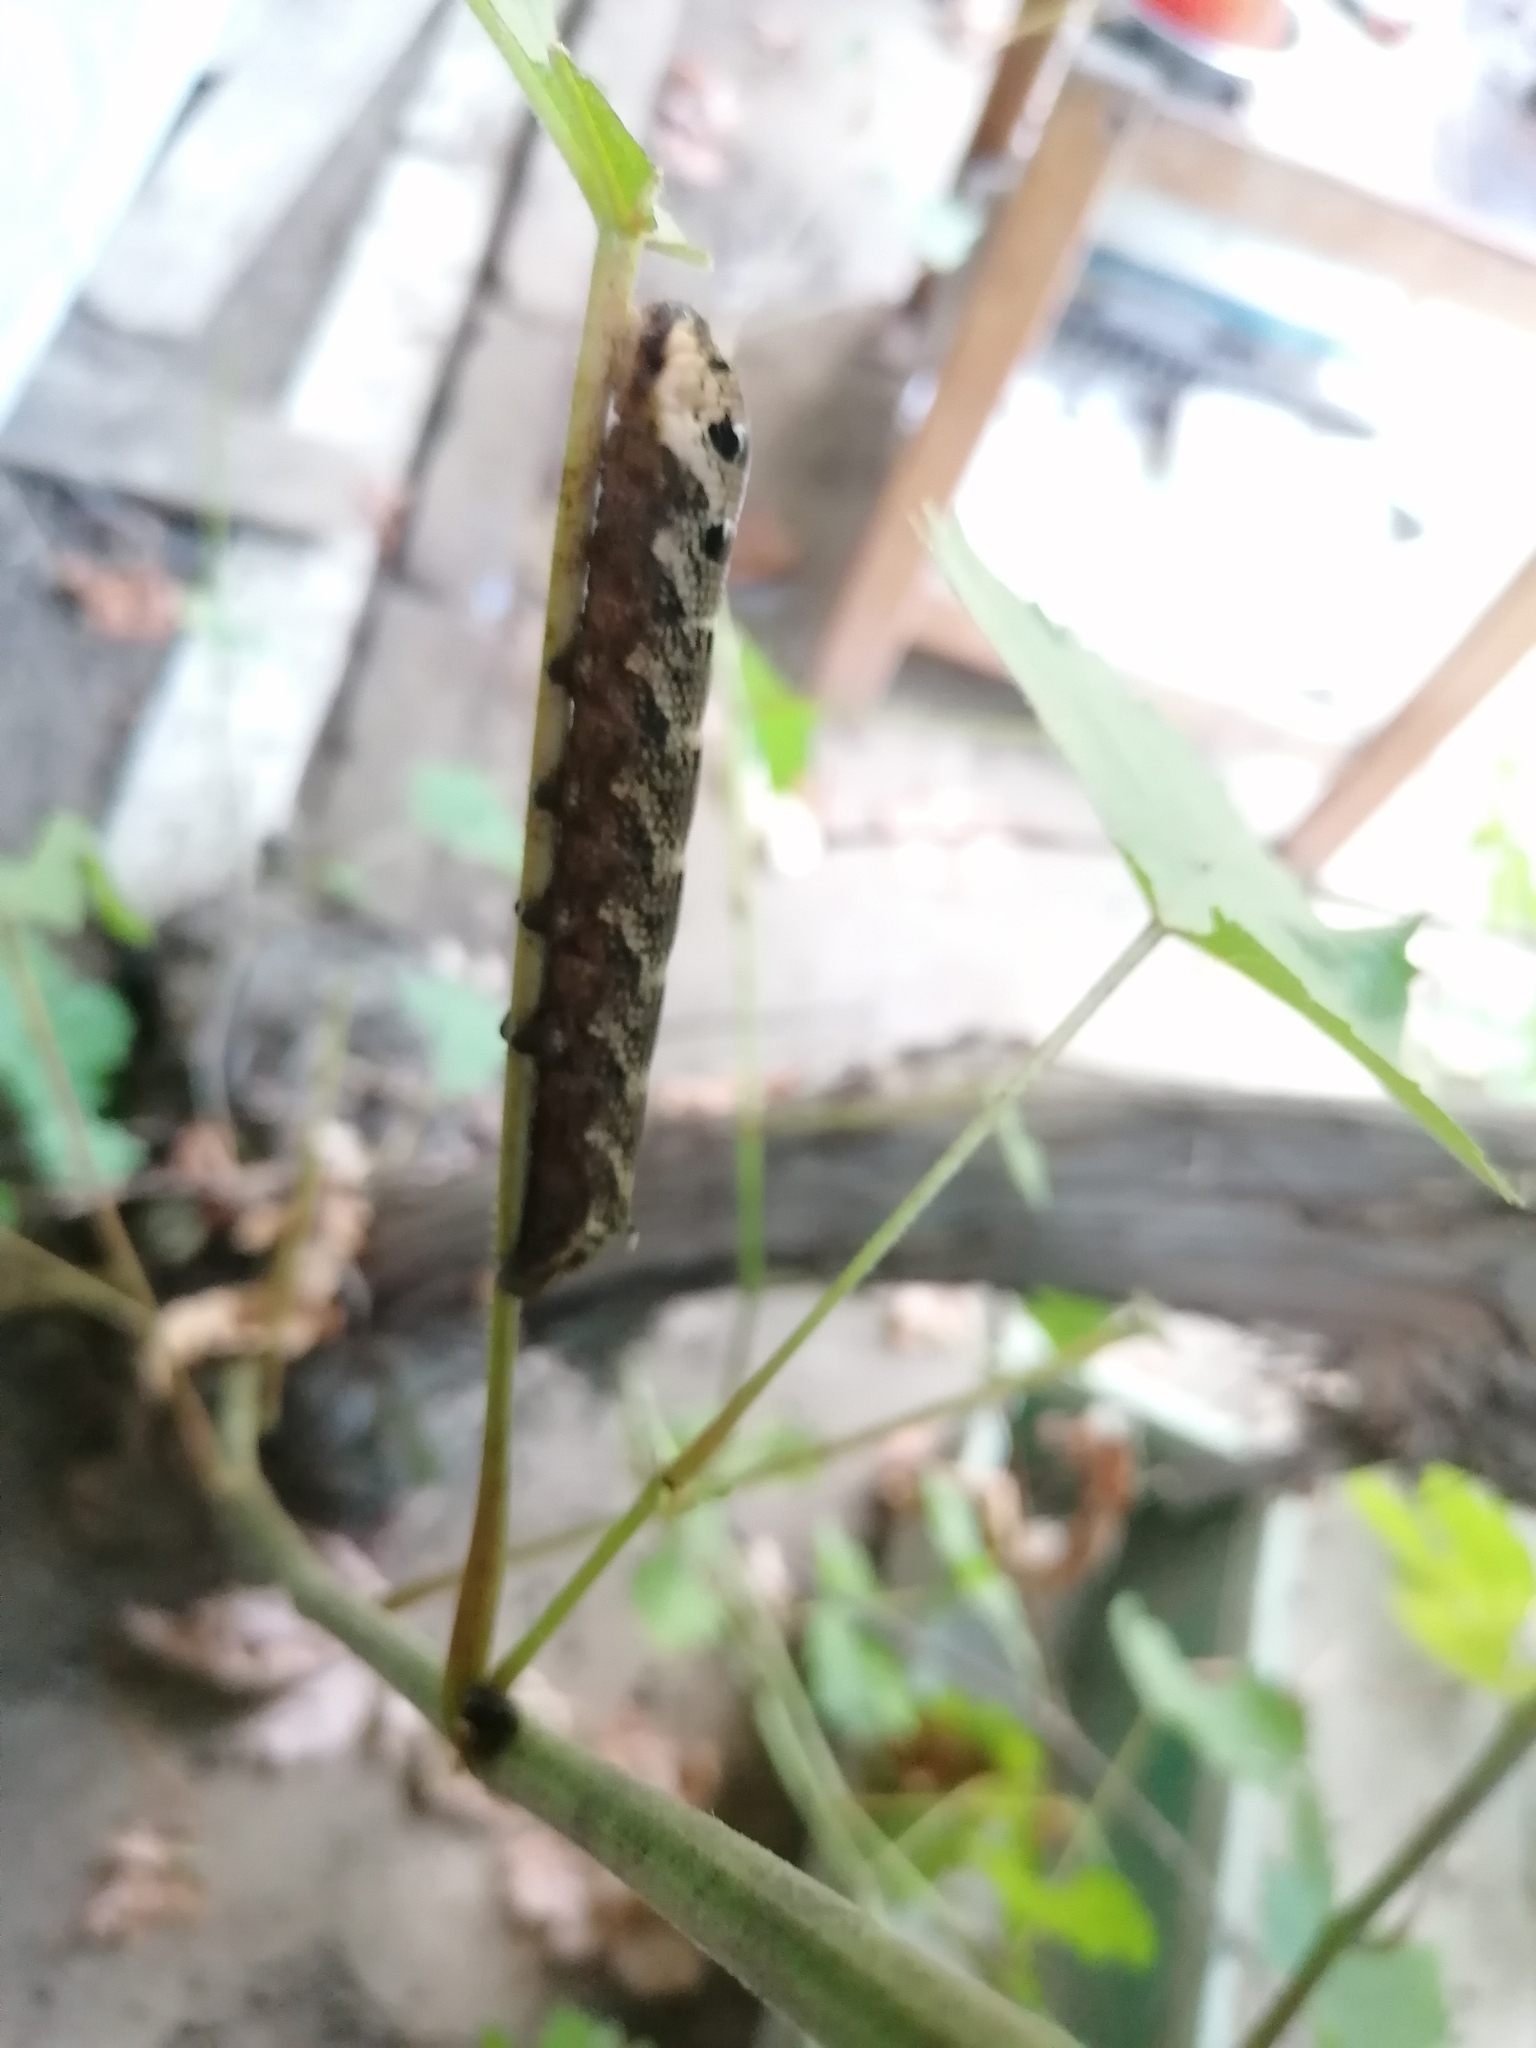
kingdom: Animalia
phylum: Arthropoda
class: Insecta
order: Lepidoptera
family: Sphingidae
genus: Deilephila
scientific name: Deilephila elpenor
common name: Elephant hawk-moth
